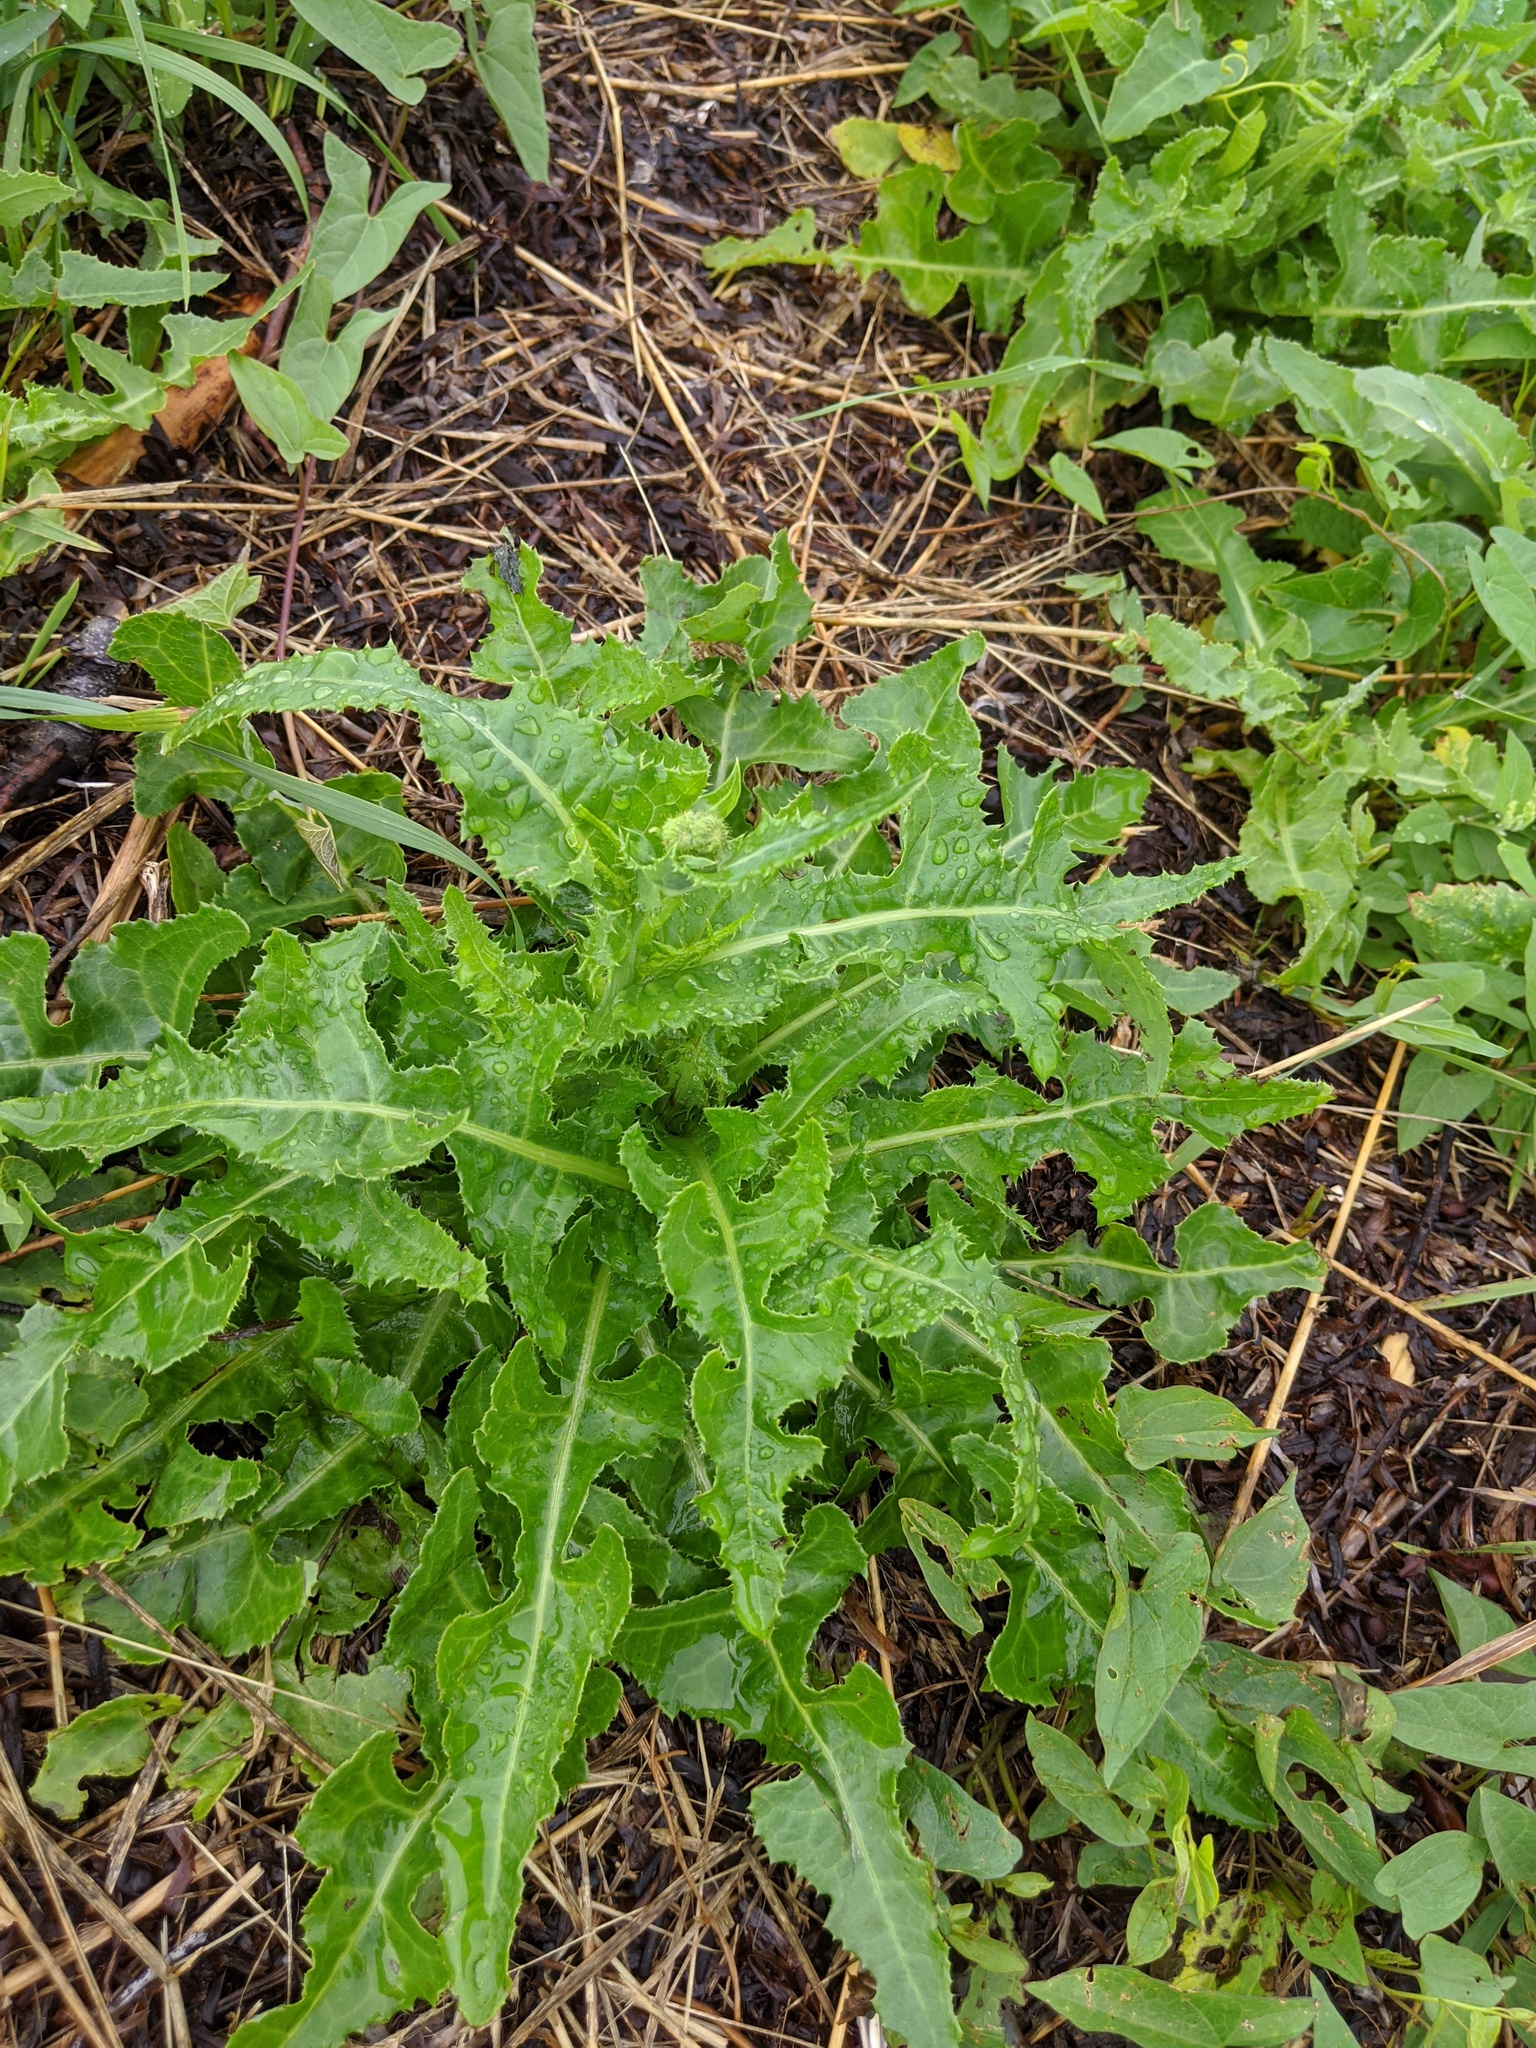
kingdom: Plantae
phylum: Tracheophyta
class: Magnoliopsida
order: Asterales
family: Asteraceae
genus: Sonchus
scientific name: Sonchus arvensis
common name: Perennial sow-thistle
